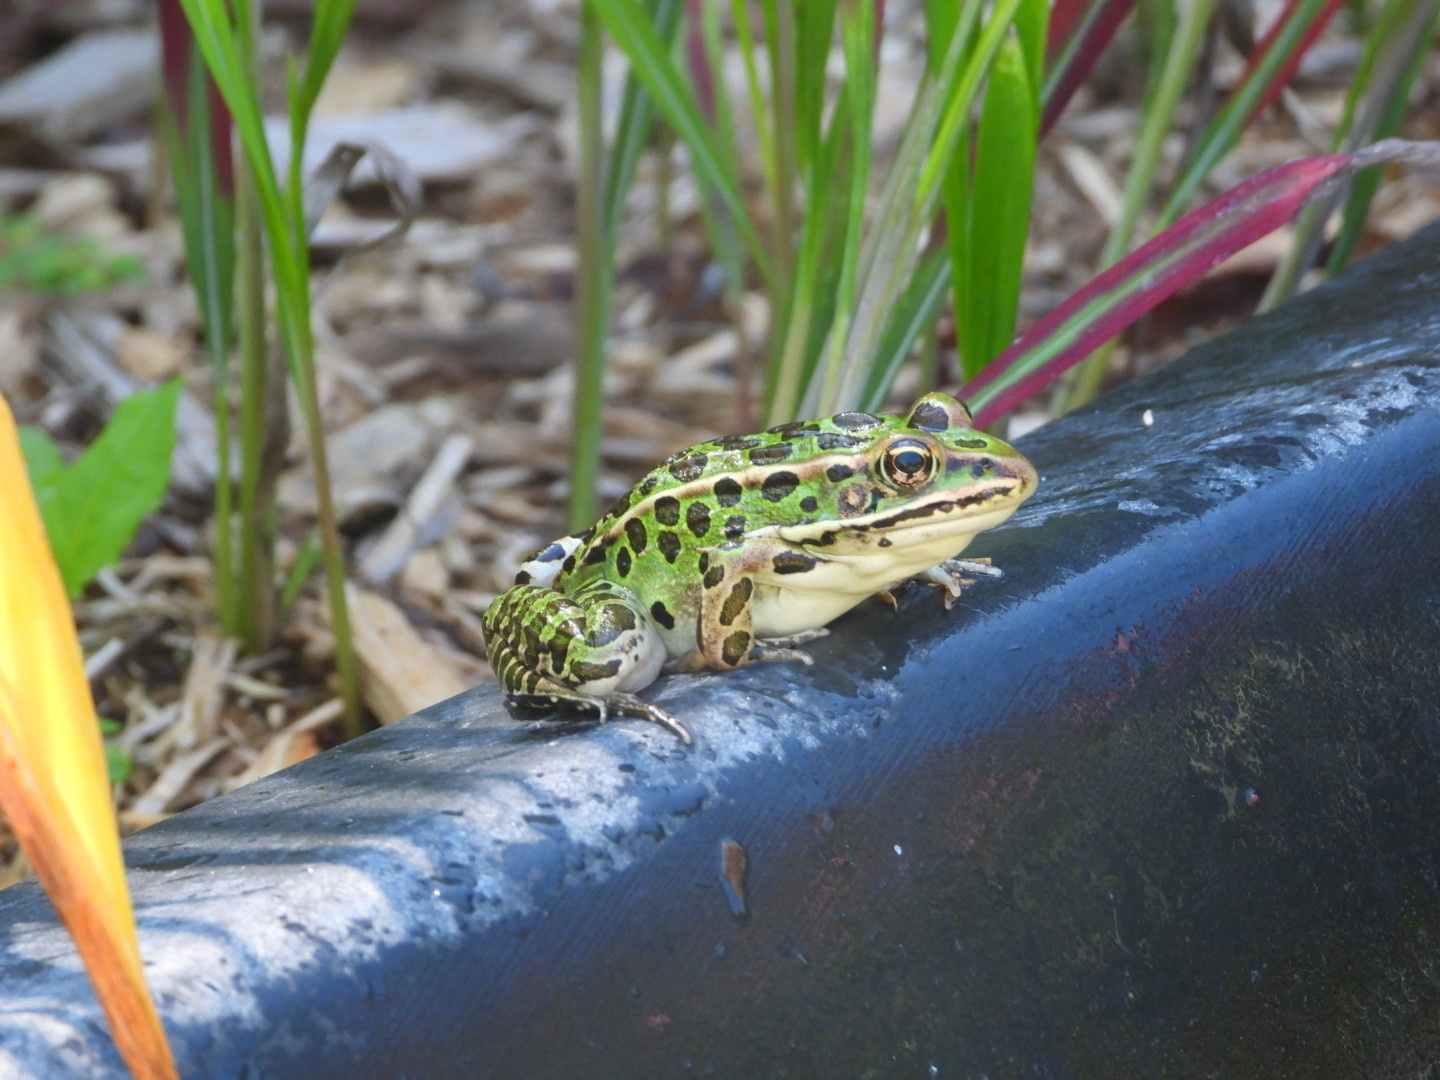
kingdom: Animalia
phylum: Chordata
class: Amphibia
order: Anura
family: Ranidae
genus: Lithobates
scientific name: Lithobates pipiens
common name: Northern leopard frog
